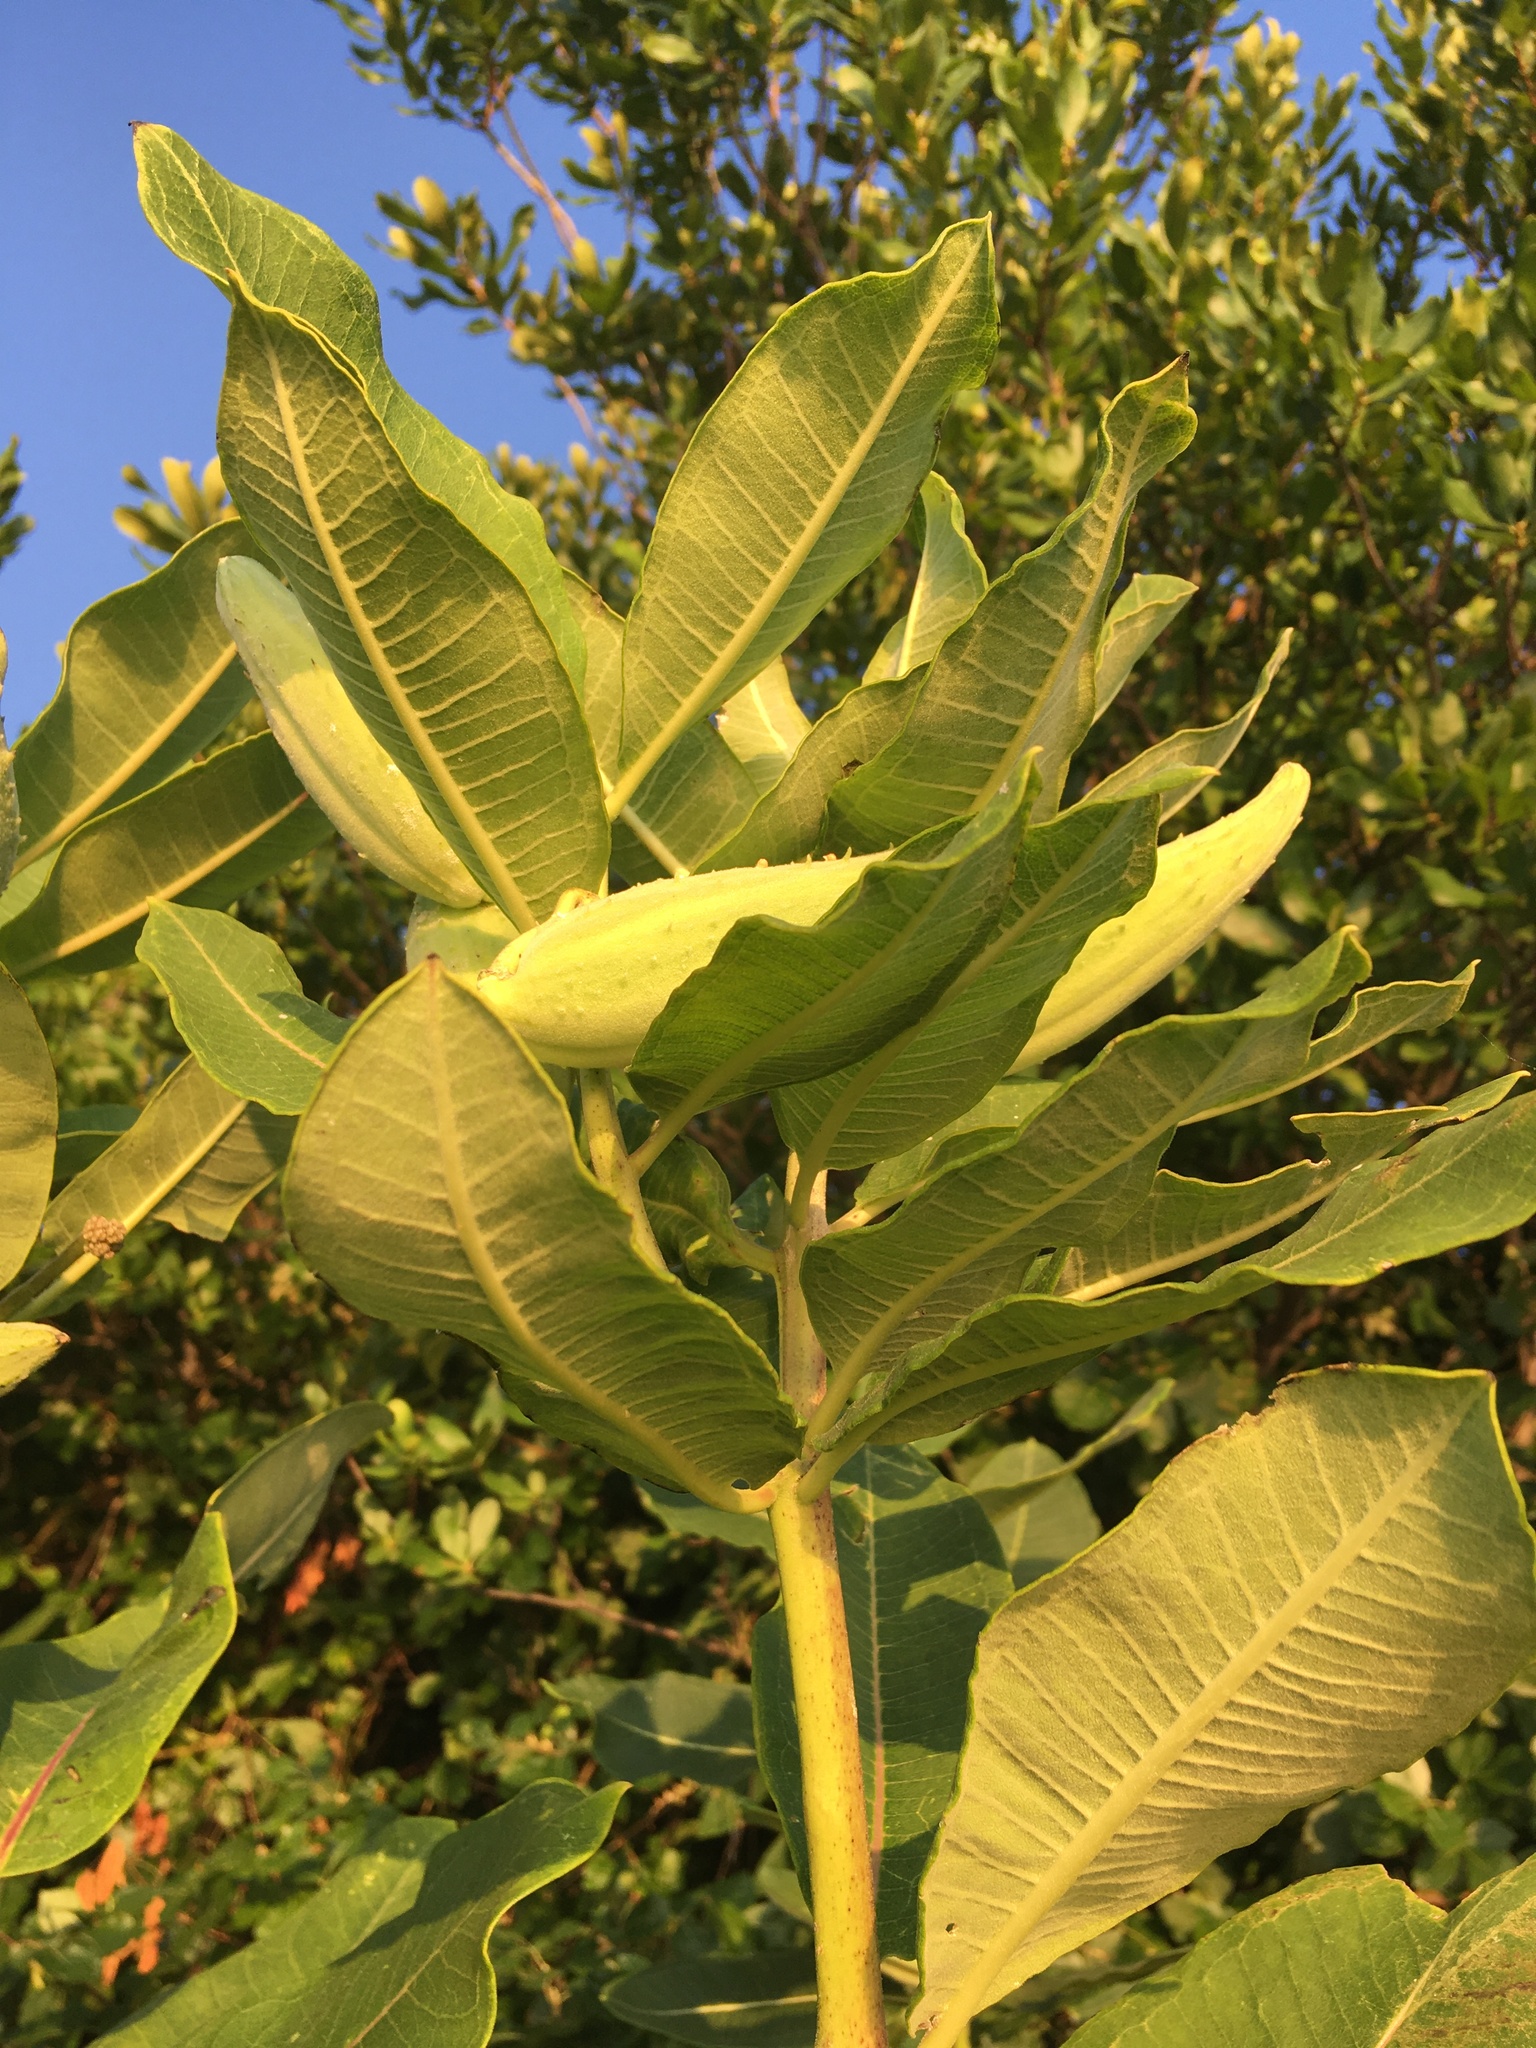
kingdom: Plantae
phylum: Tracheophyta
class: Magnoliopsida
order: Gentianales
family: Apocynaceae
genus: Asclepias
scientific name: Asclepias syriaca
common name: Common milkweed
